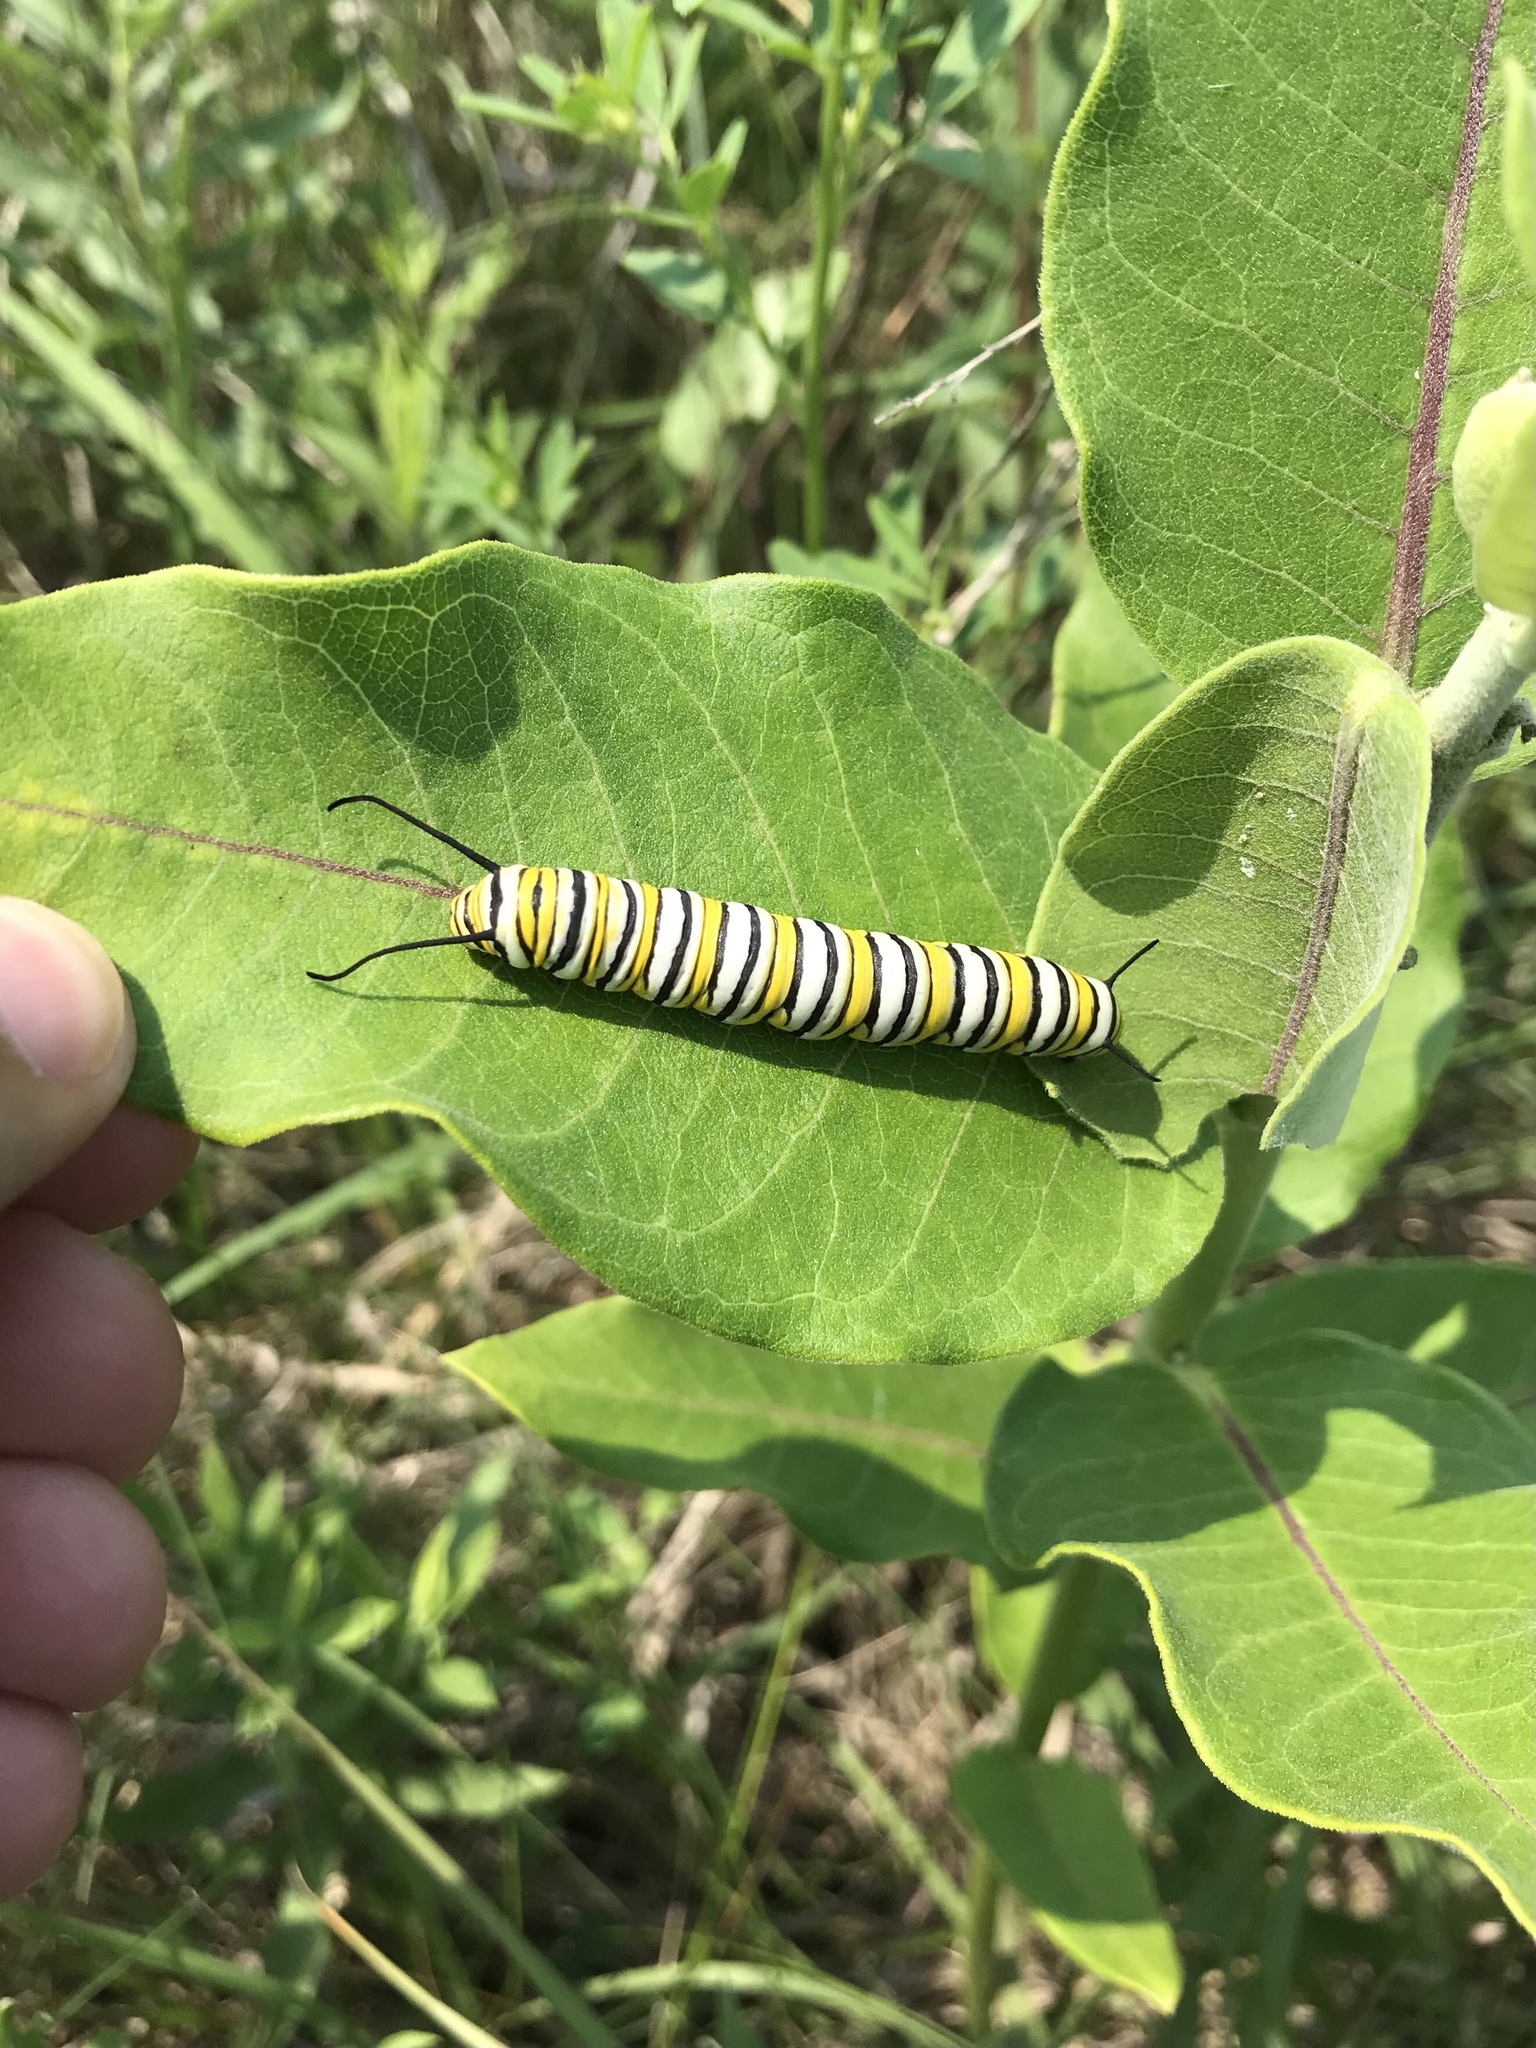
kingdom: Animalia
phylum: Arthropoda
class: Insecta
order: Lepidoptera
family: Nymphalidae
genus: Danaus
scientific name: Danaus plexippus
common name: Monarch
